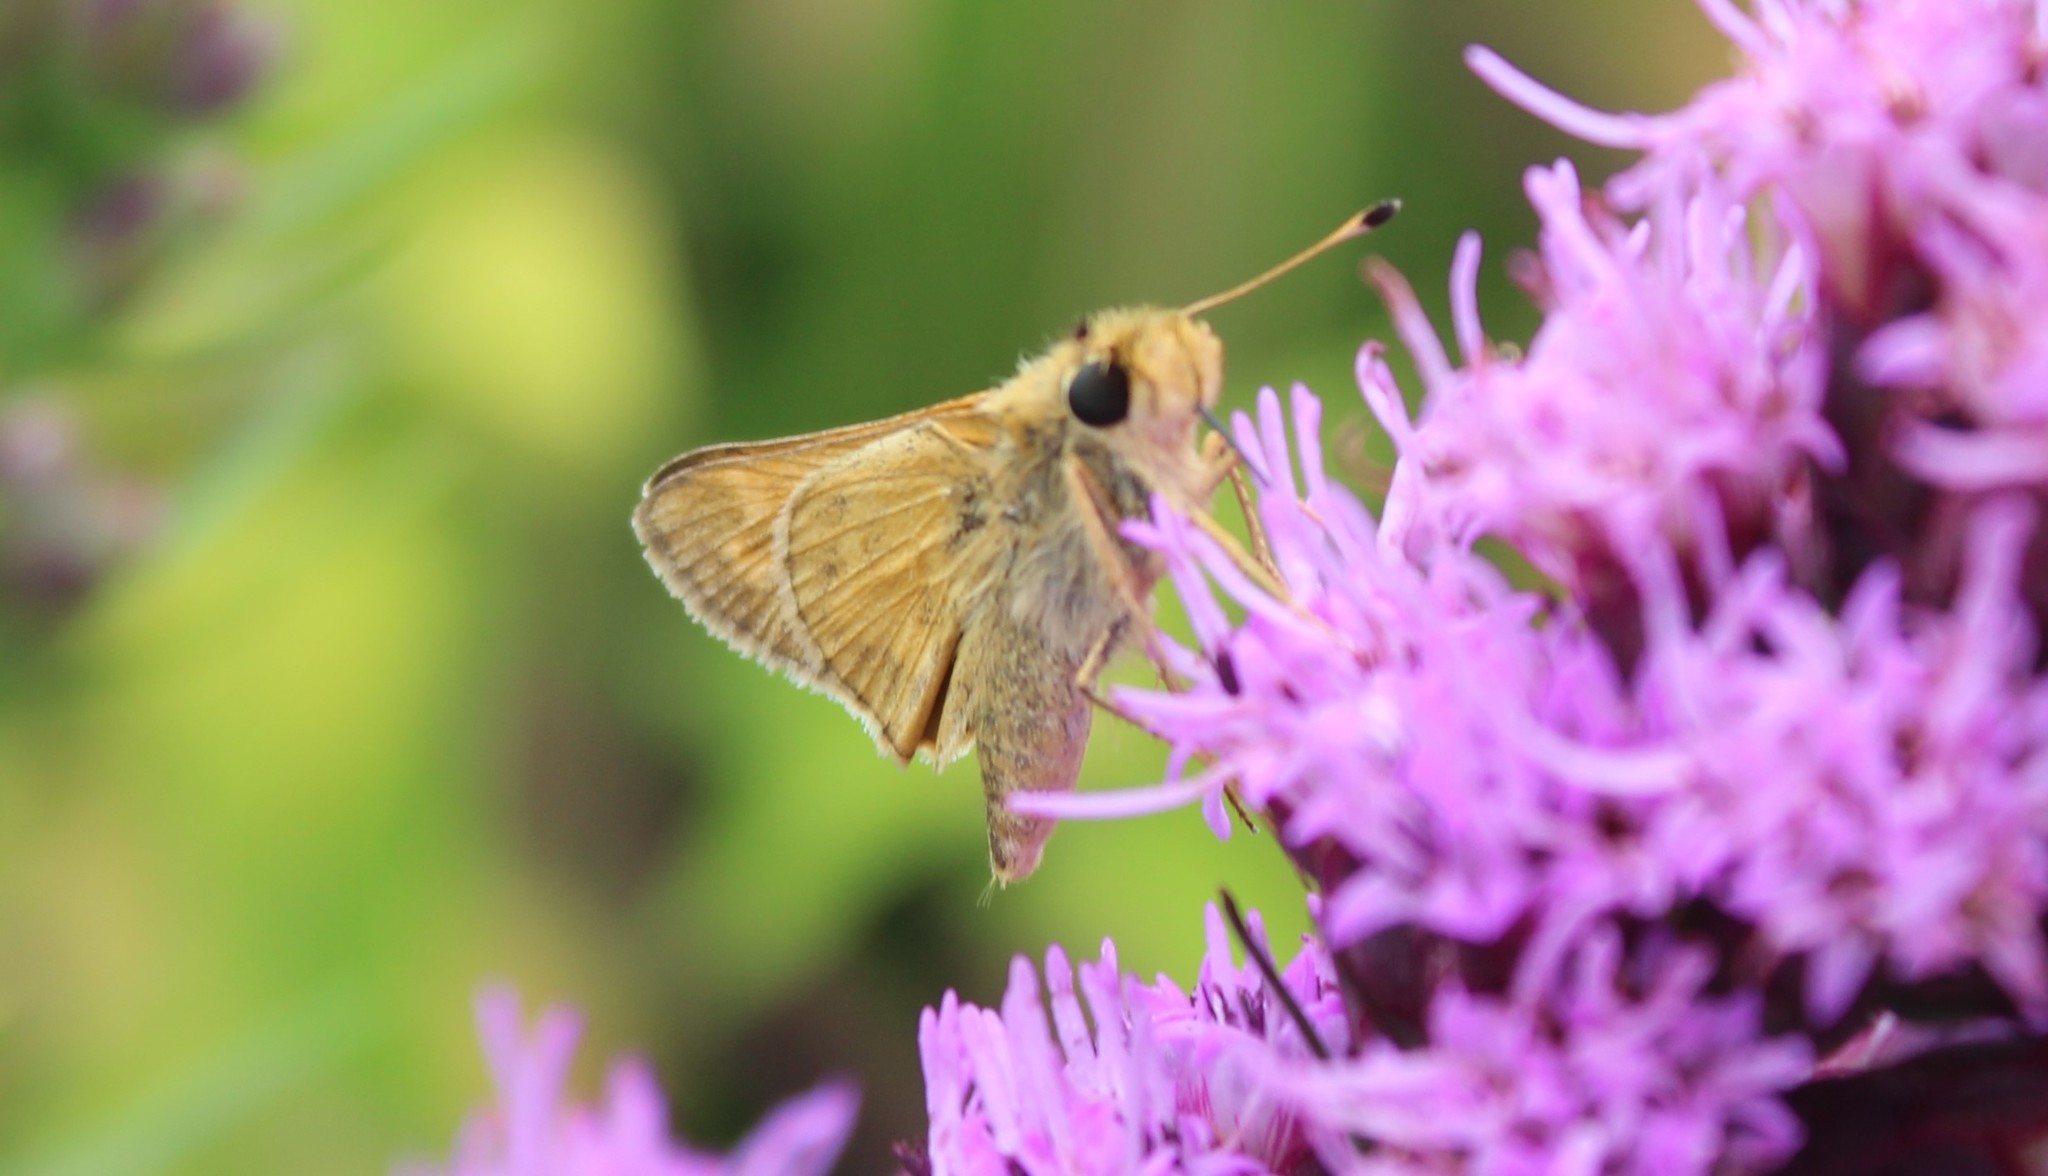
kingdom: Animalia
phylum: Arthropoda
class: Insecta
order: Lepidoptera
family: Hesperiidae
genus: Atalopedes
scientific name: Atalopedes
